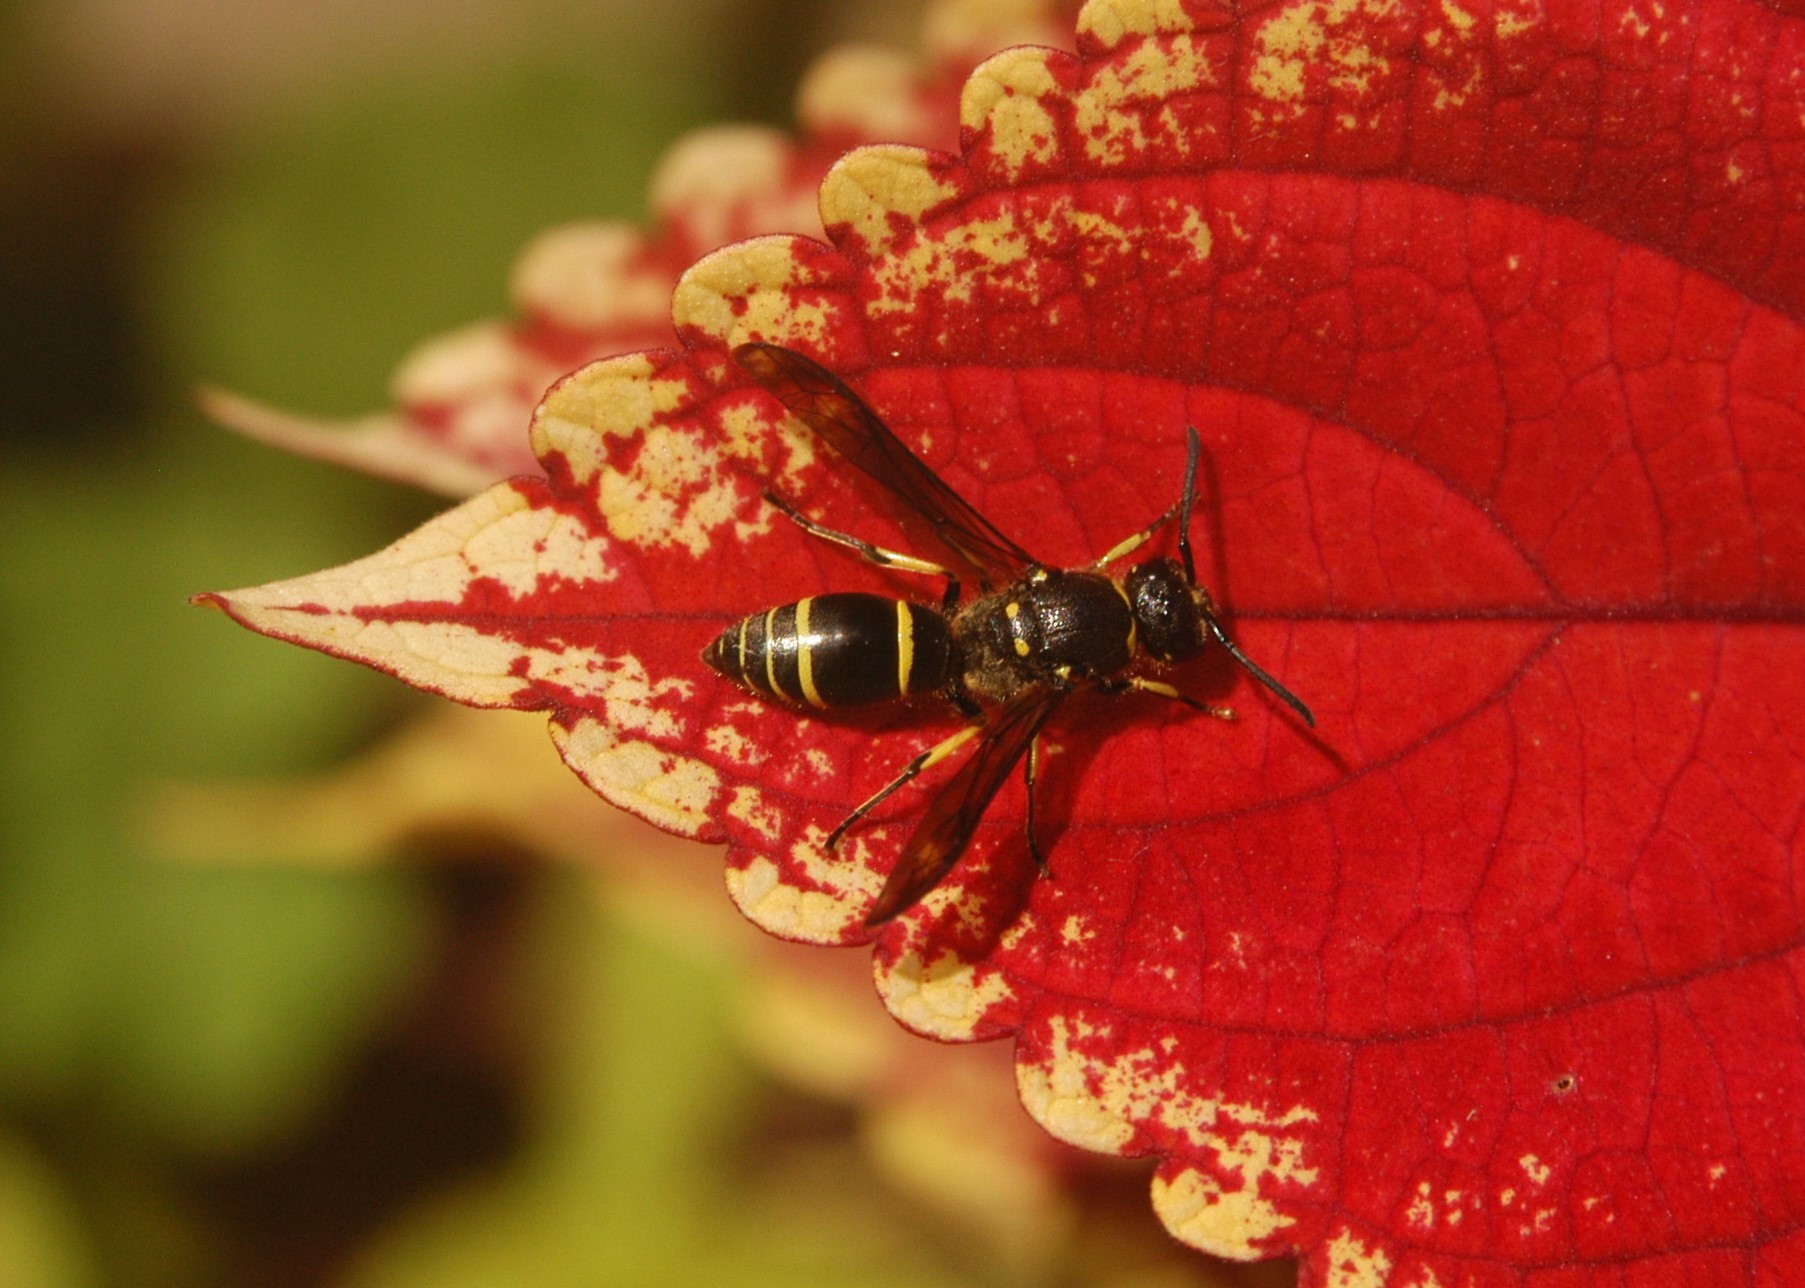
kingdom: Animalia
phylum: Arthropoda
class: Insecta
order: Hymenoptera
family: Vespidae
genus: Ancistrocerus
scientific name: Ancistrocerus
